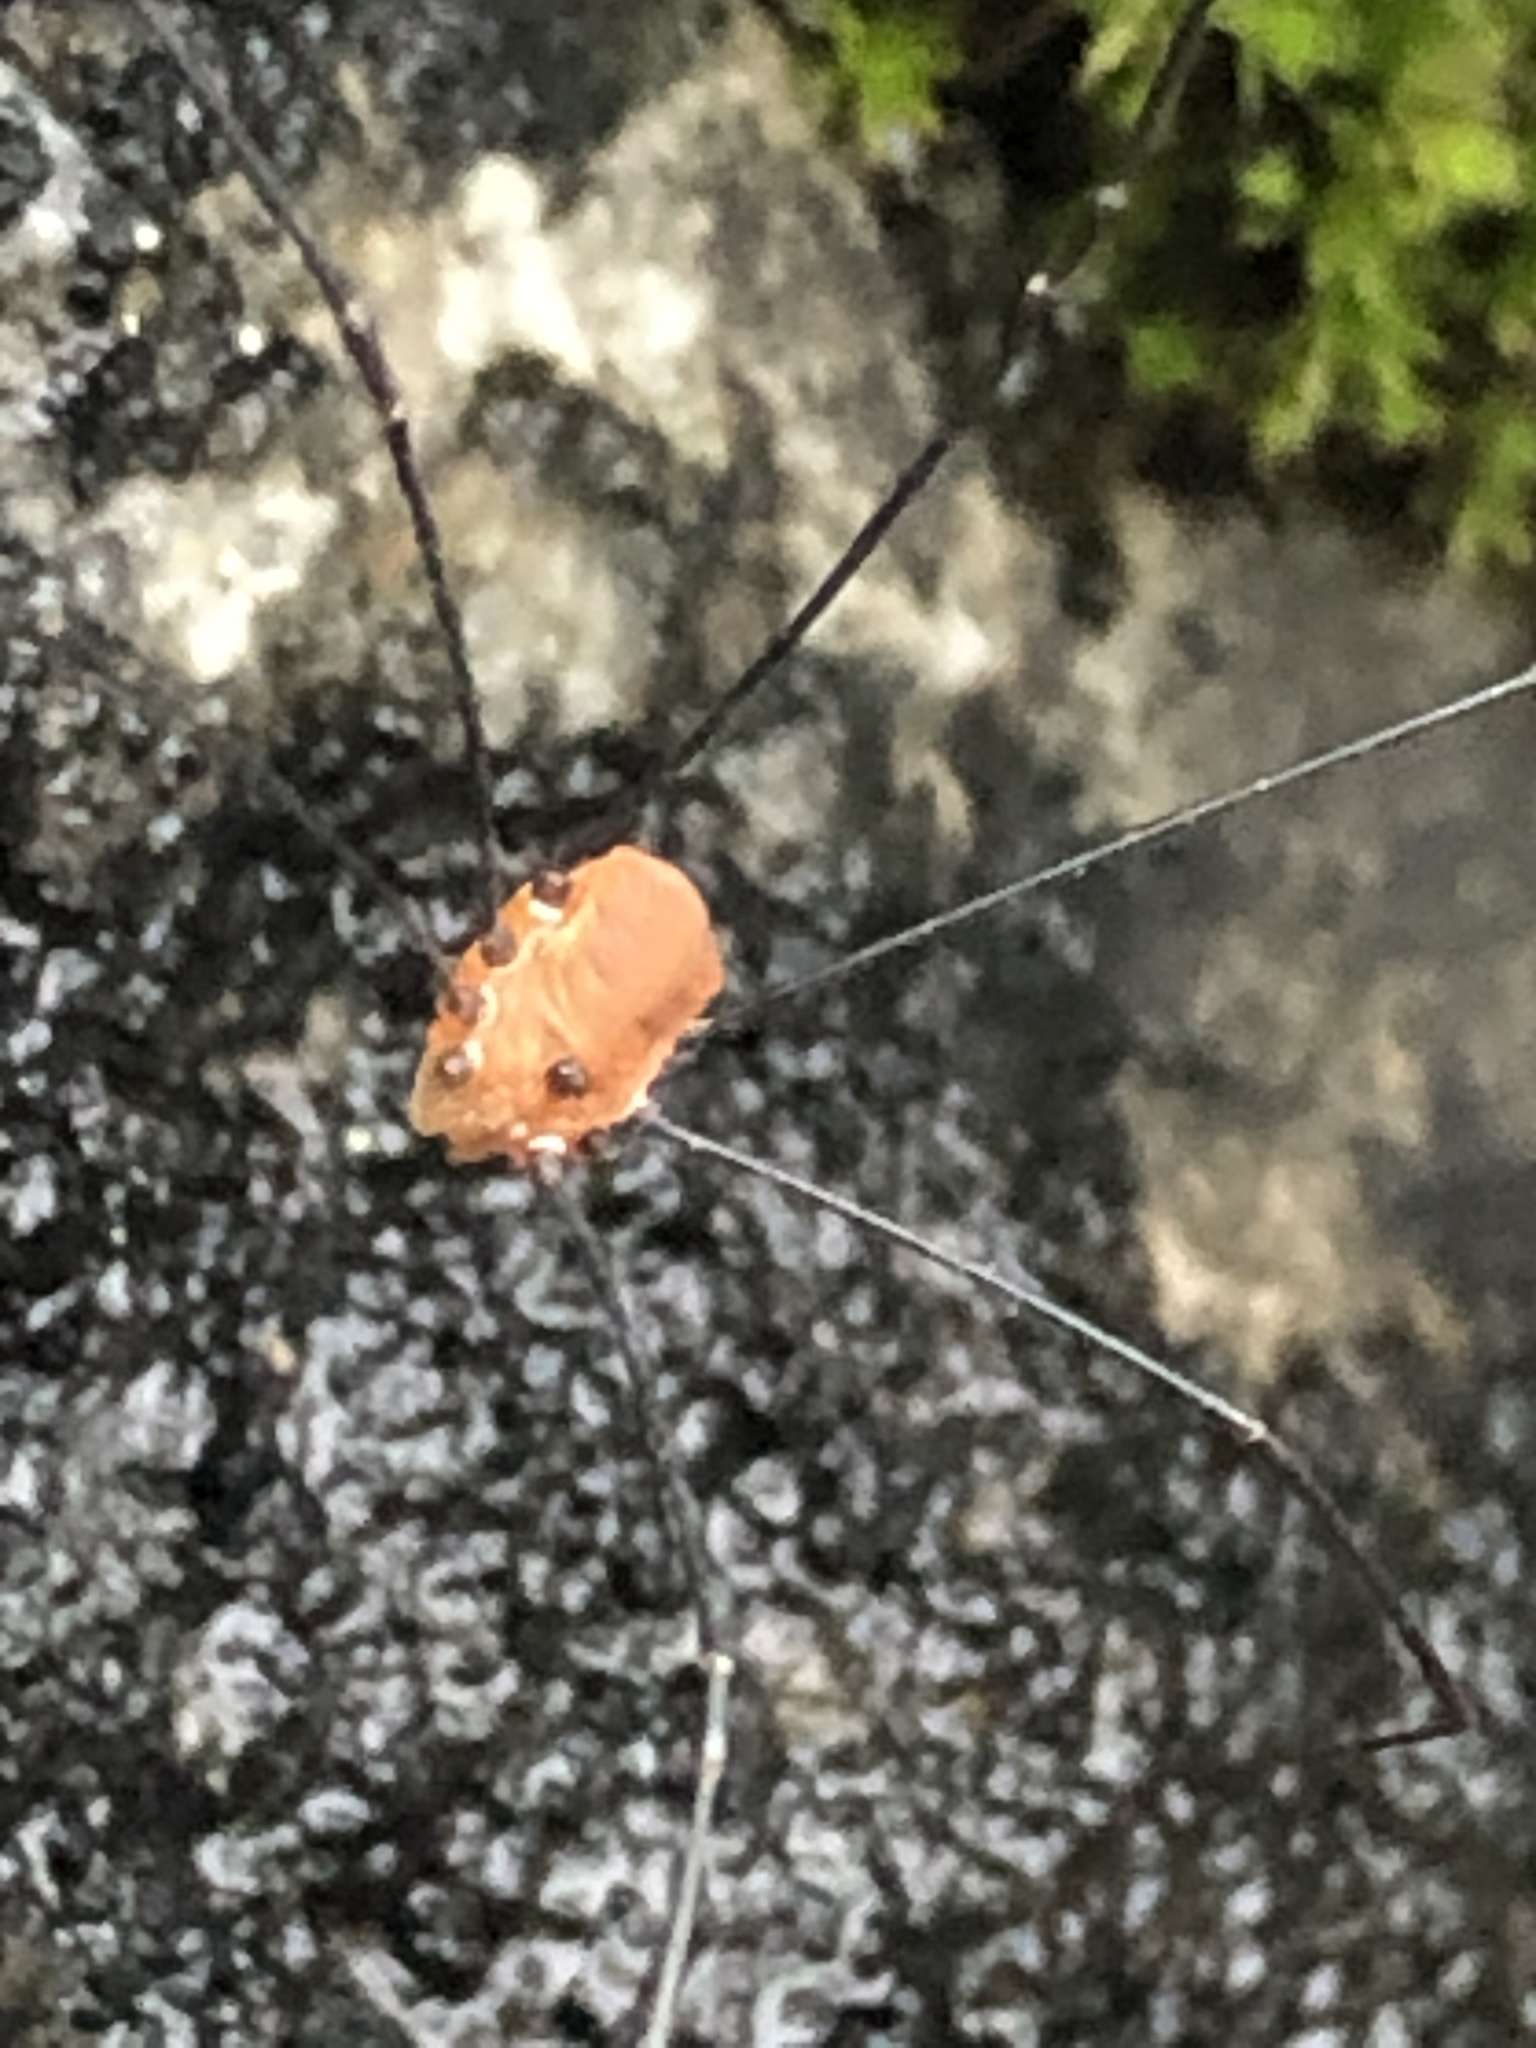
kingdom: Animalia
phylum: Arthropoda
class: Arachnida
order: Opiliones
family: Sclerosomatidae
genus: Leiobunum
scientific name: Leiobunum aldrichi
